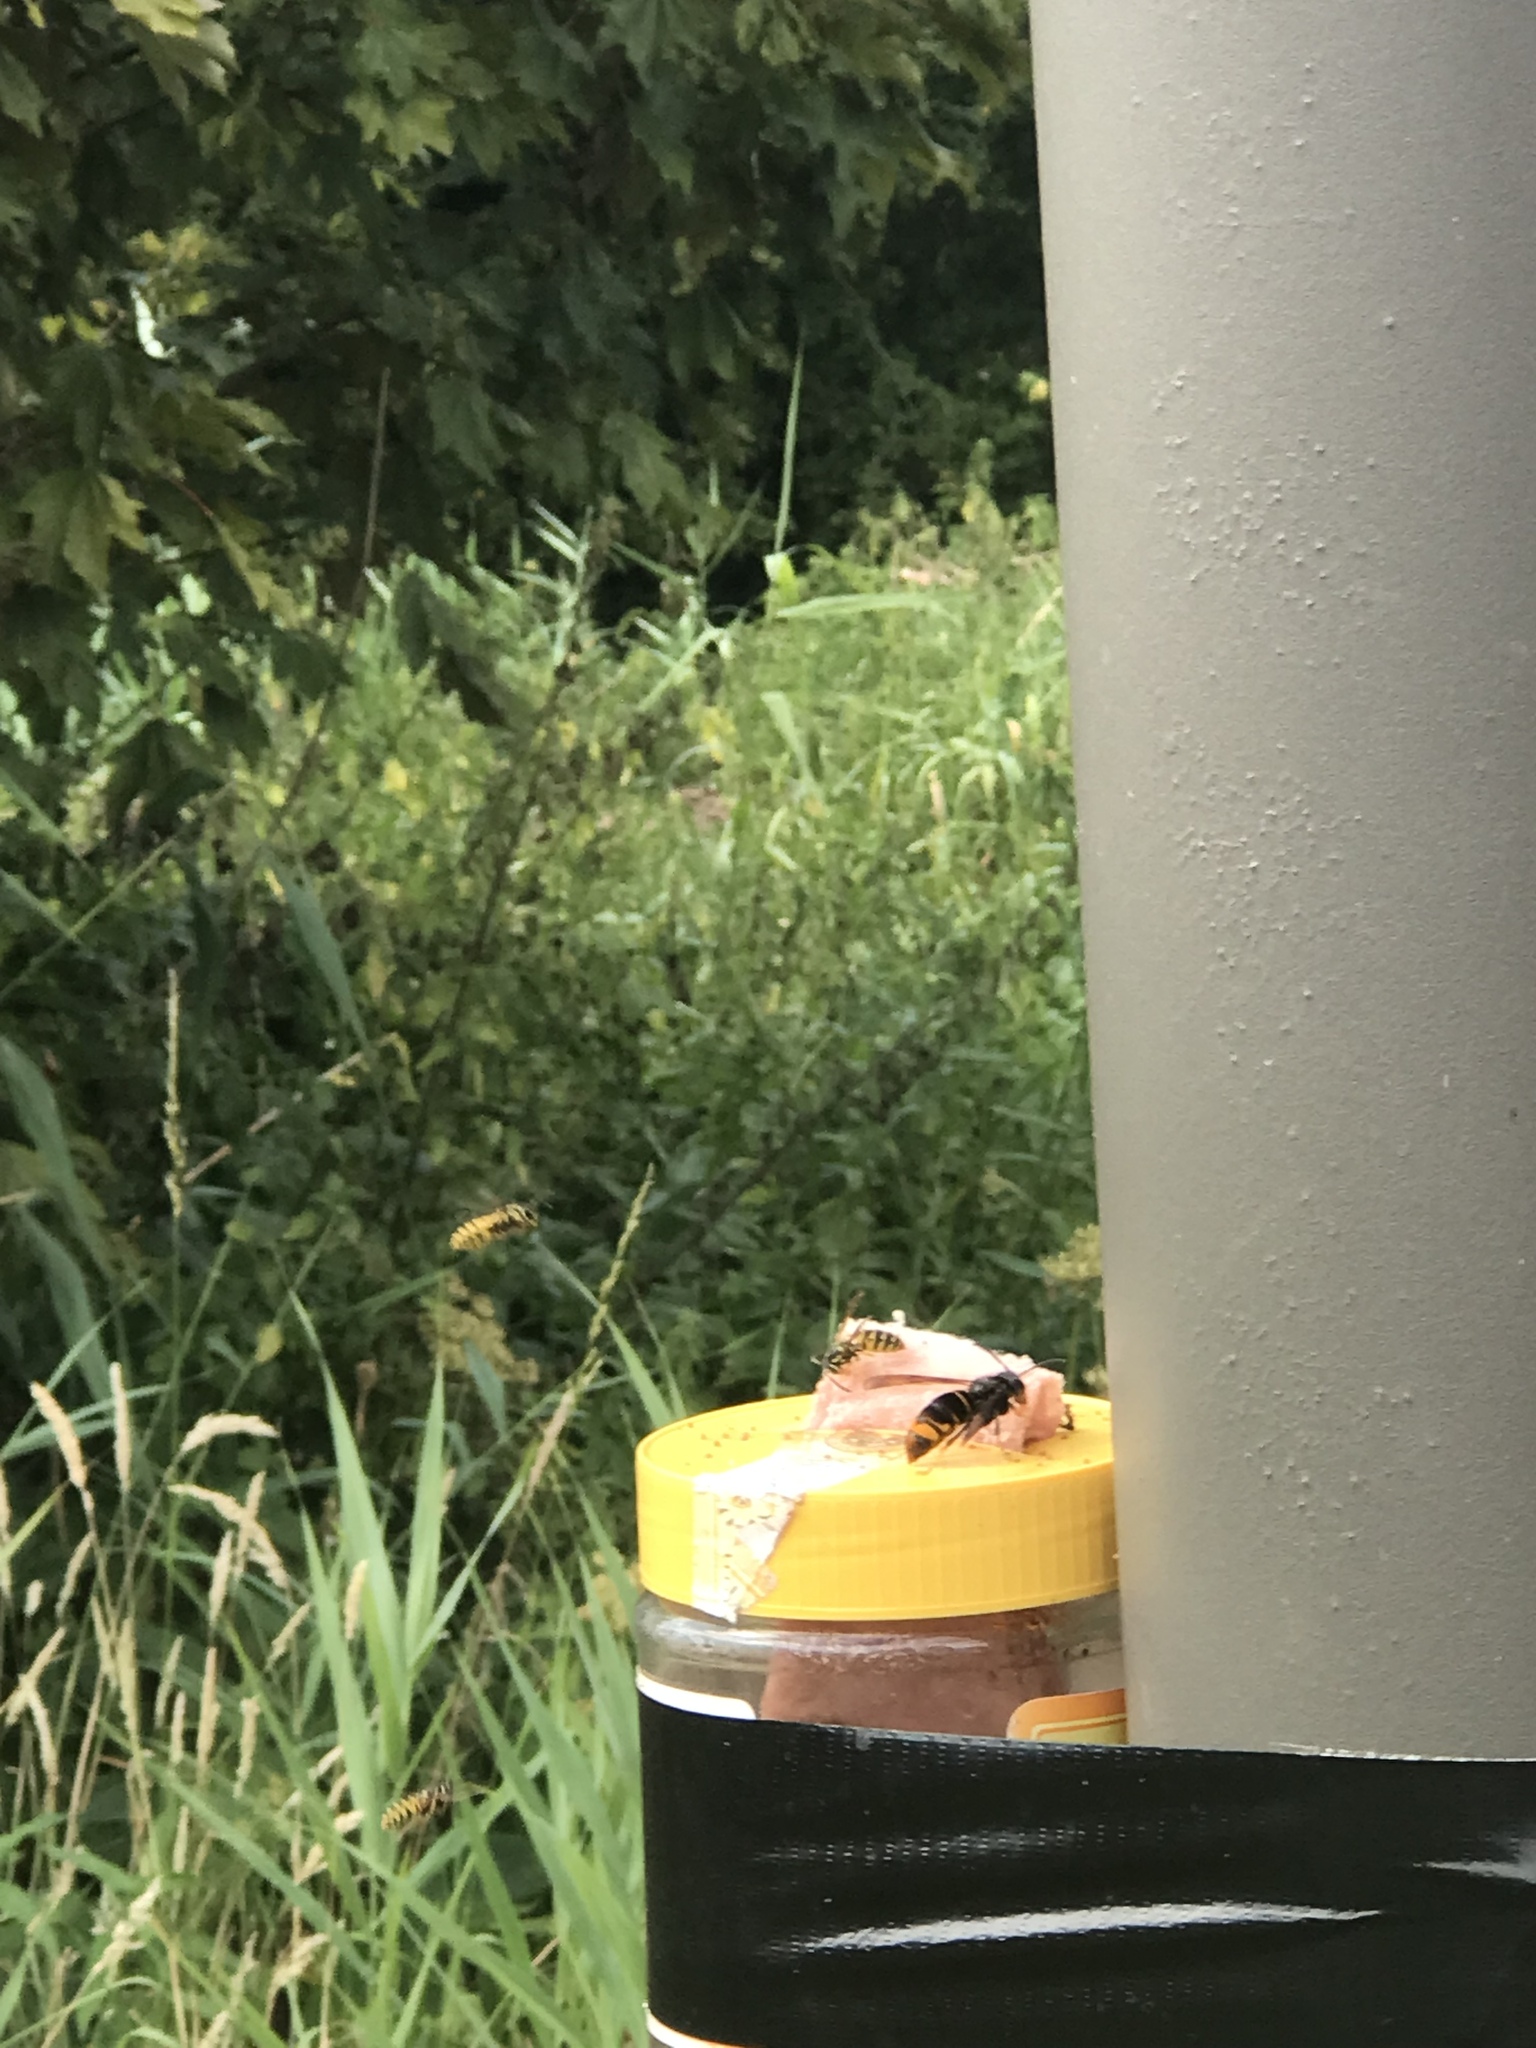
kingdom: Animalia
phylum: Arthropoda
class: Insecta
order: Hymenoptera
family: Vespidae
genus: Vespa
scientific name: Vespa velutina
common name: Asian hornet
